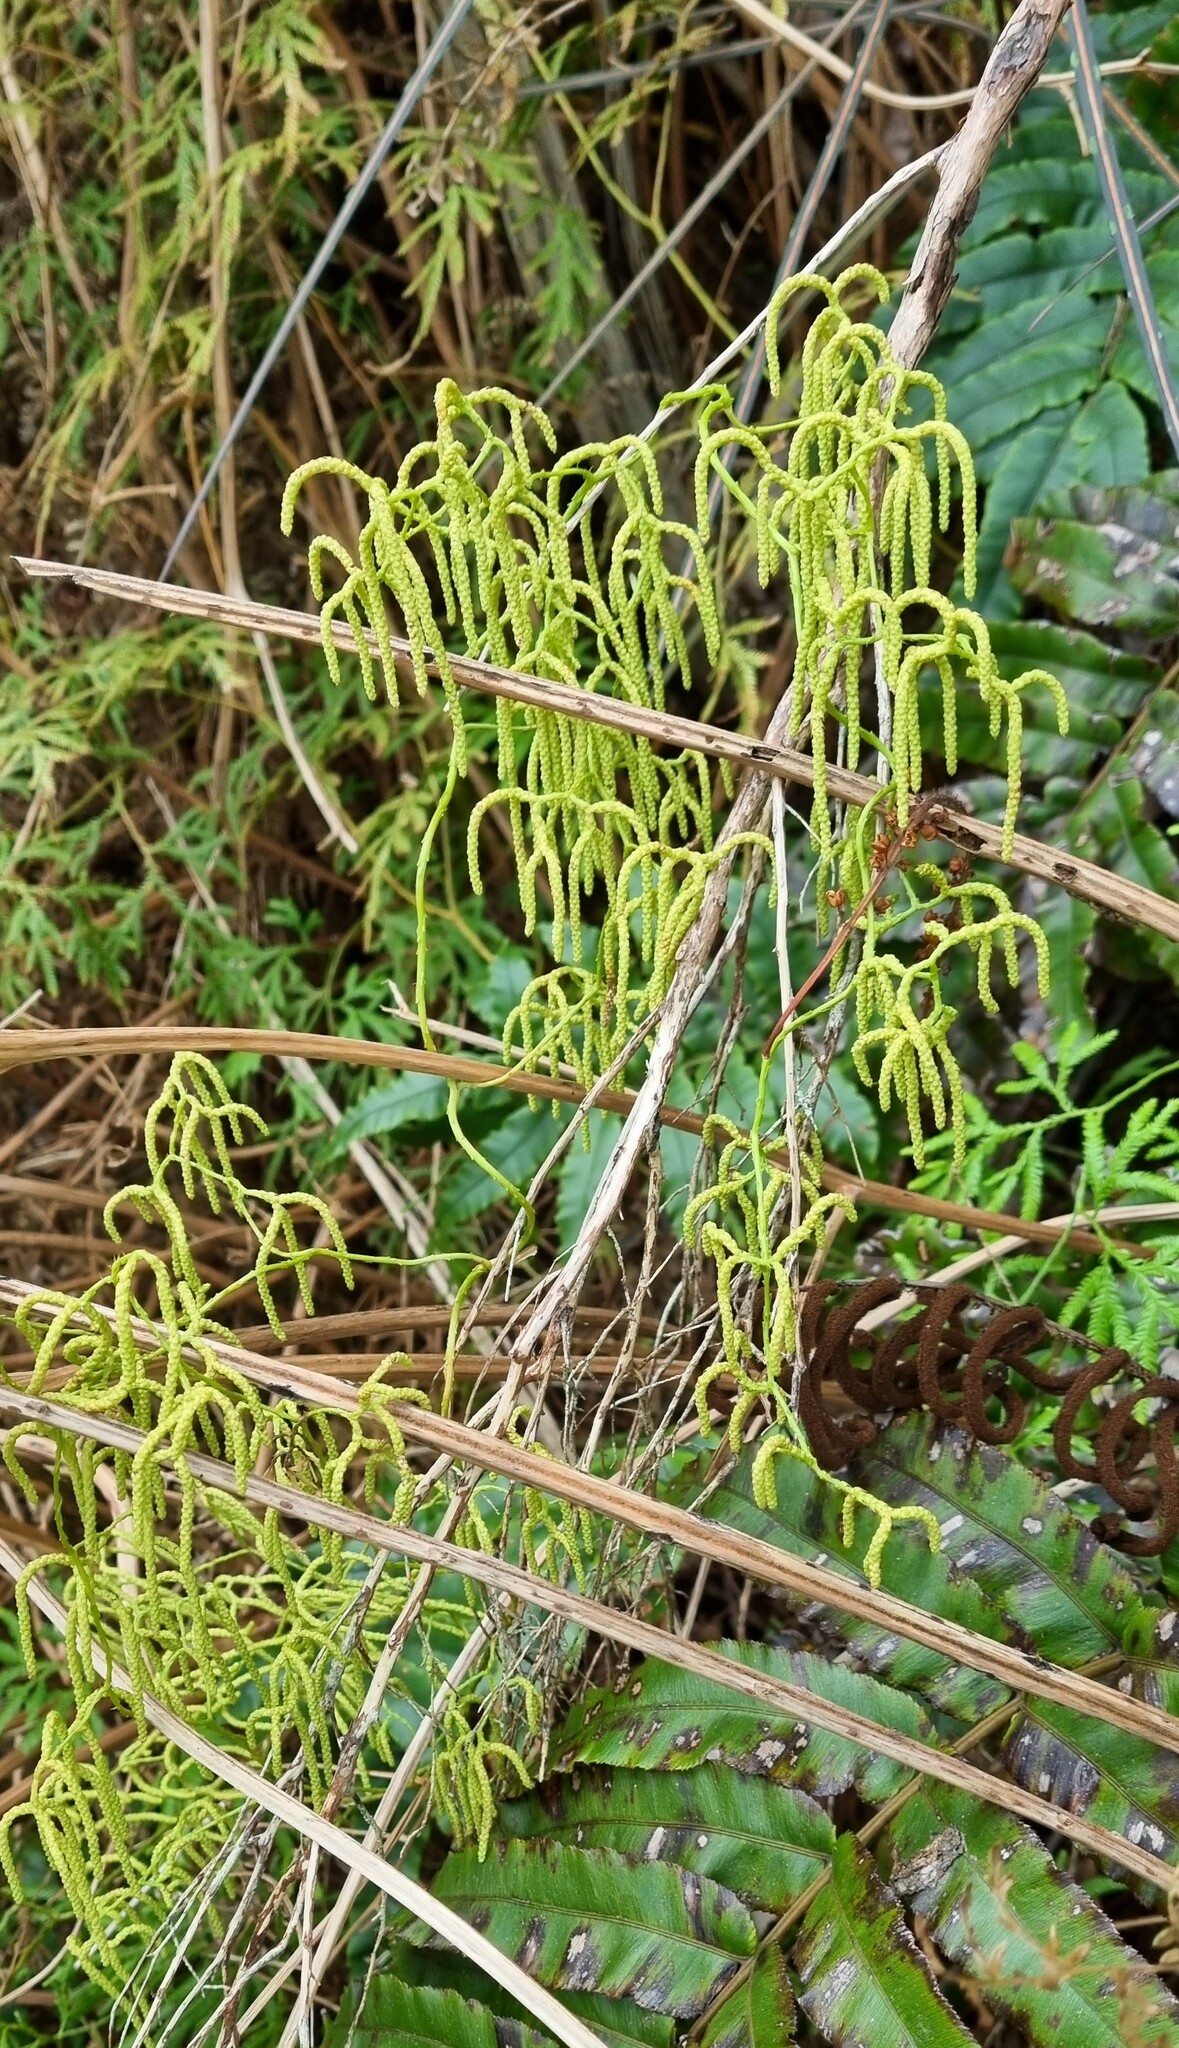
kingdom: Plantae
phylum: Tracheophyta
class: Lycopodiopsida
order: Lycopodiales
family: Lycopodiaceae
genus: Lycopodium
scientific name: Lycopodium volubile
